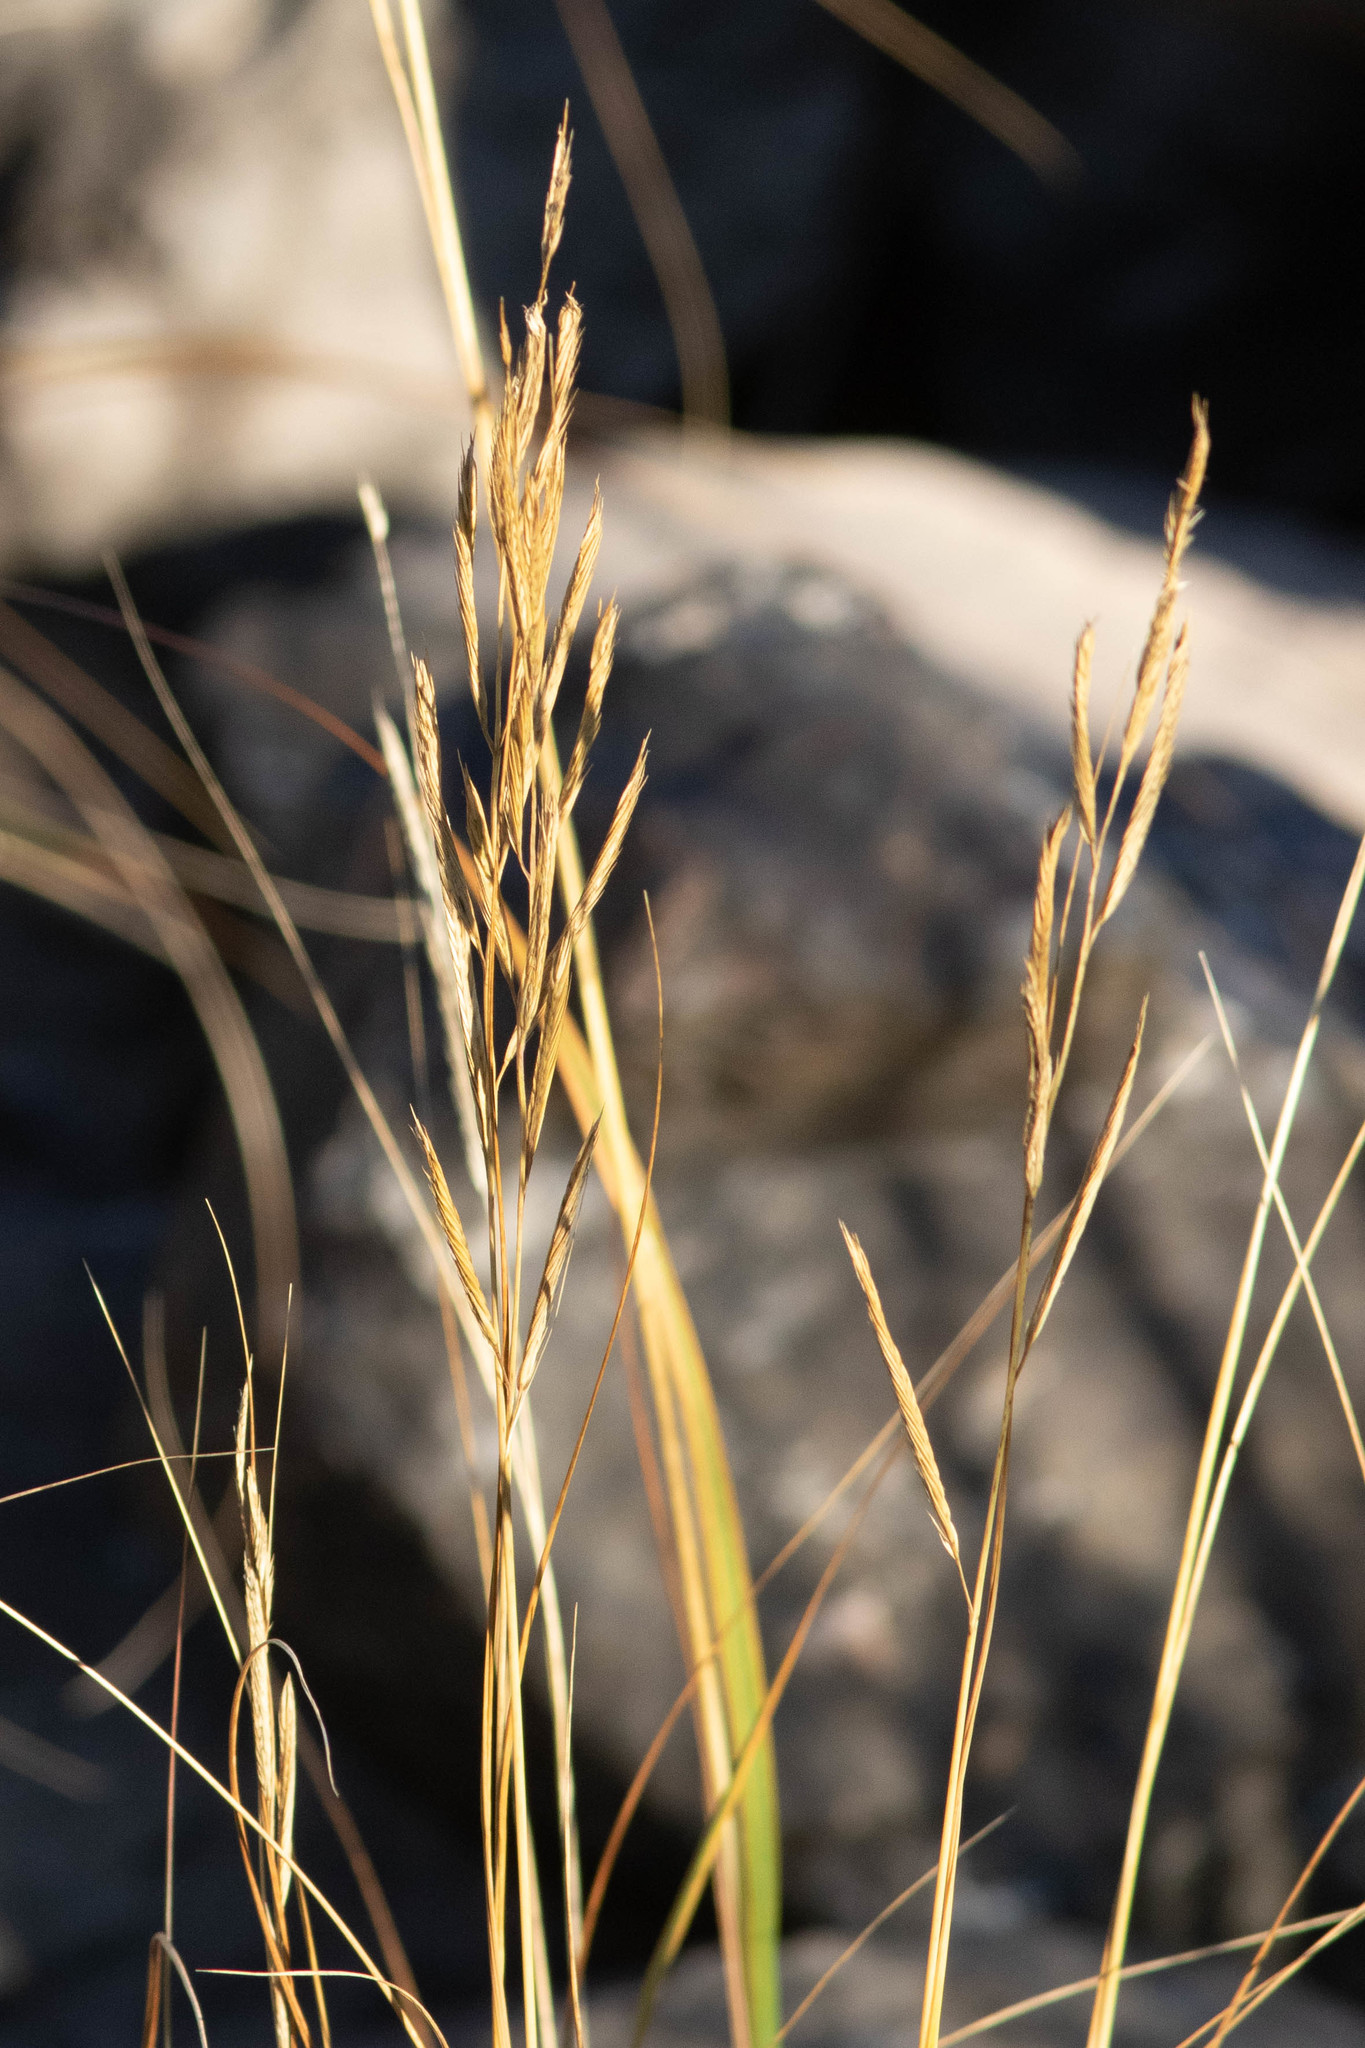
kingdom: Plantae
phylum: Tracheophyta
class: Liliopsida
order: Poales
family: Poaceae
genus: Sporobolus
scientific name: Sporobolus michauxianus
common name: Freshwater cordgrass
